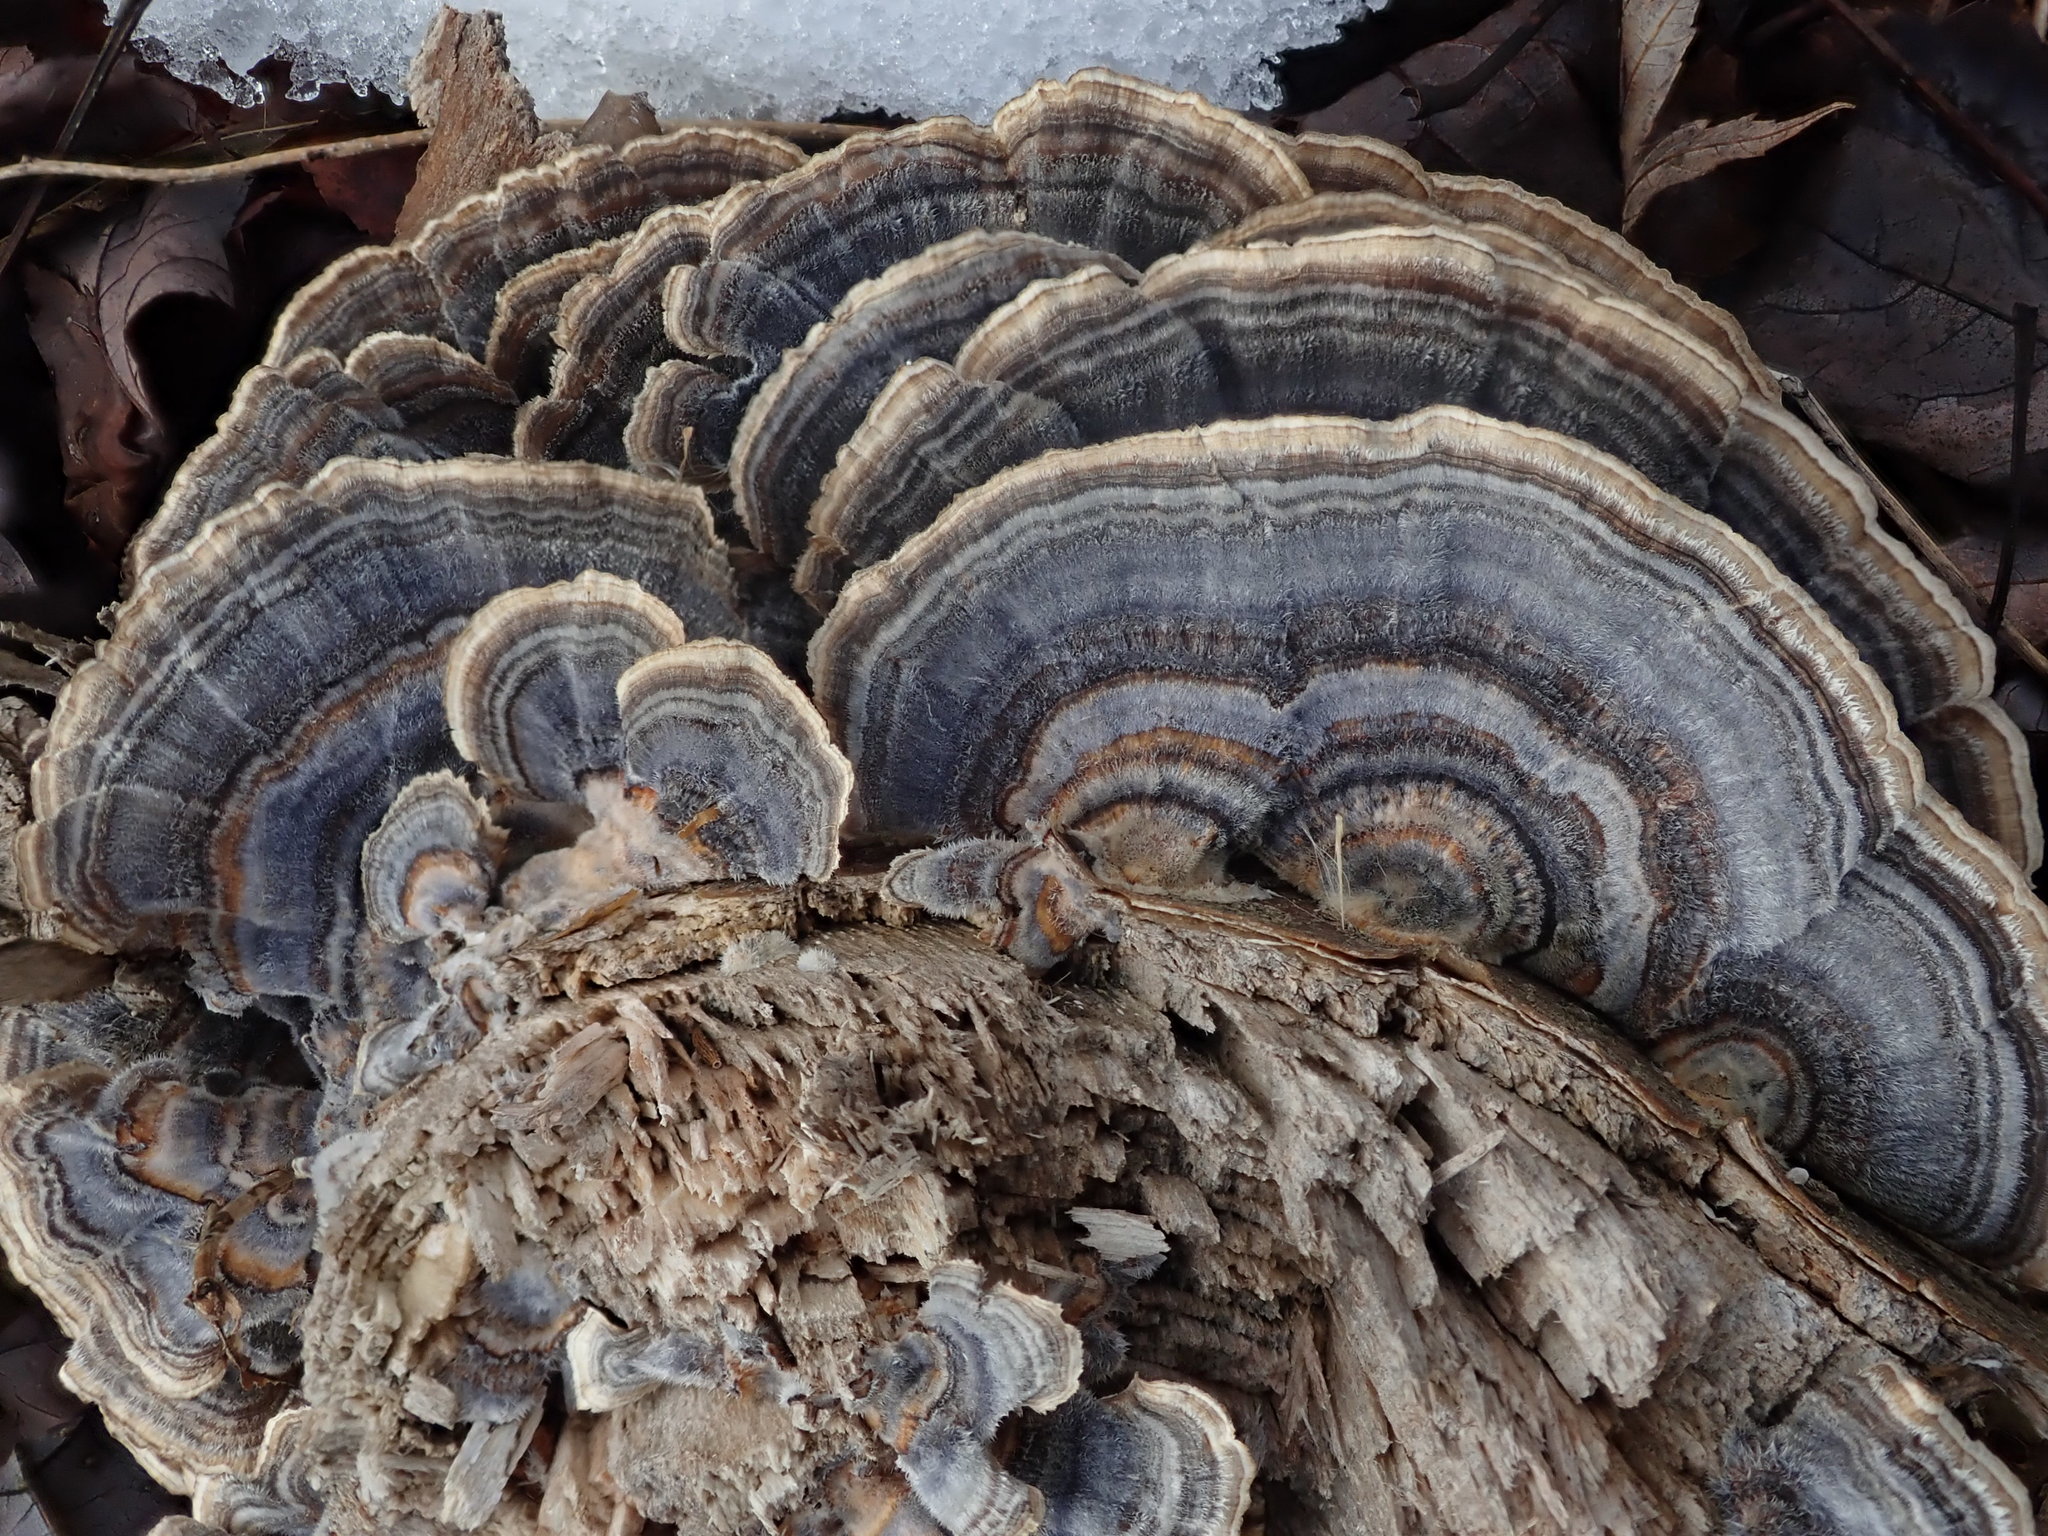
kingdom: Fungi
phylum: Basidiomycota
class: Agaricomycetes
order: Polyporales
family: Polyporaceae
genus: Trametes
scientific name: Trametes versicolor
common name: Turkeytail
